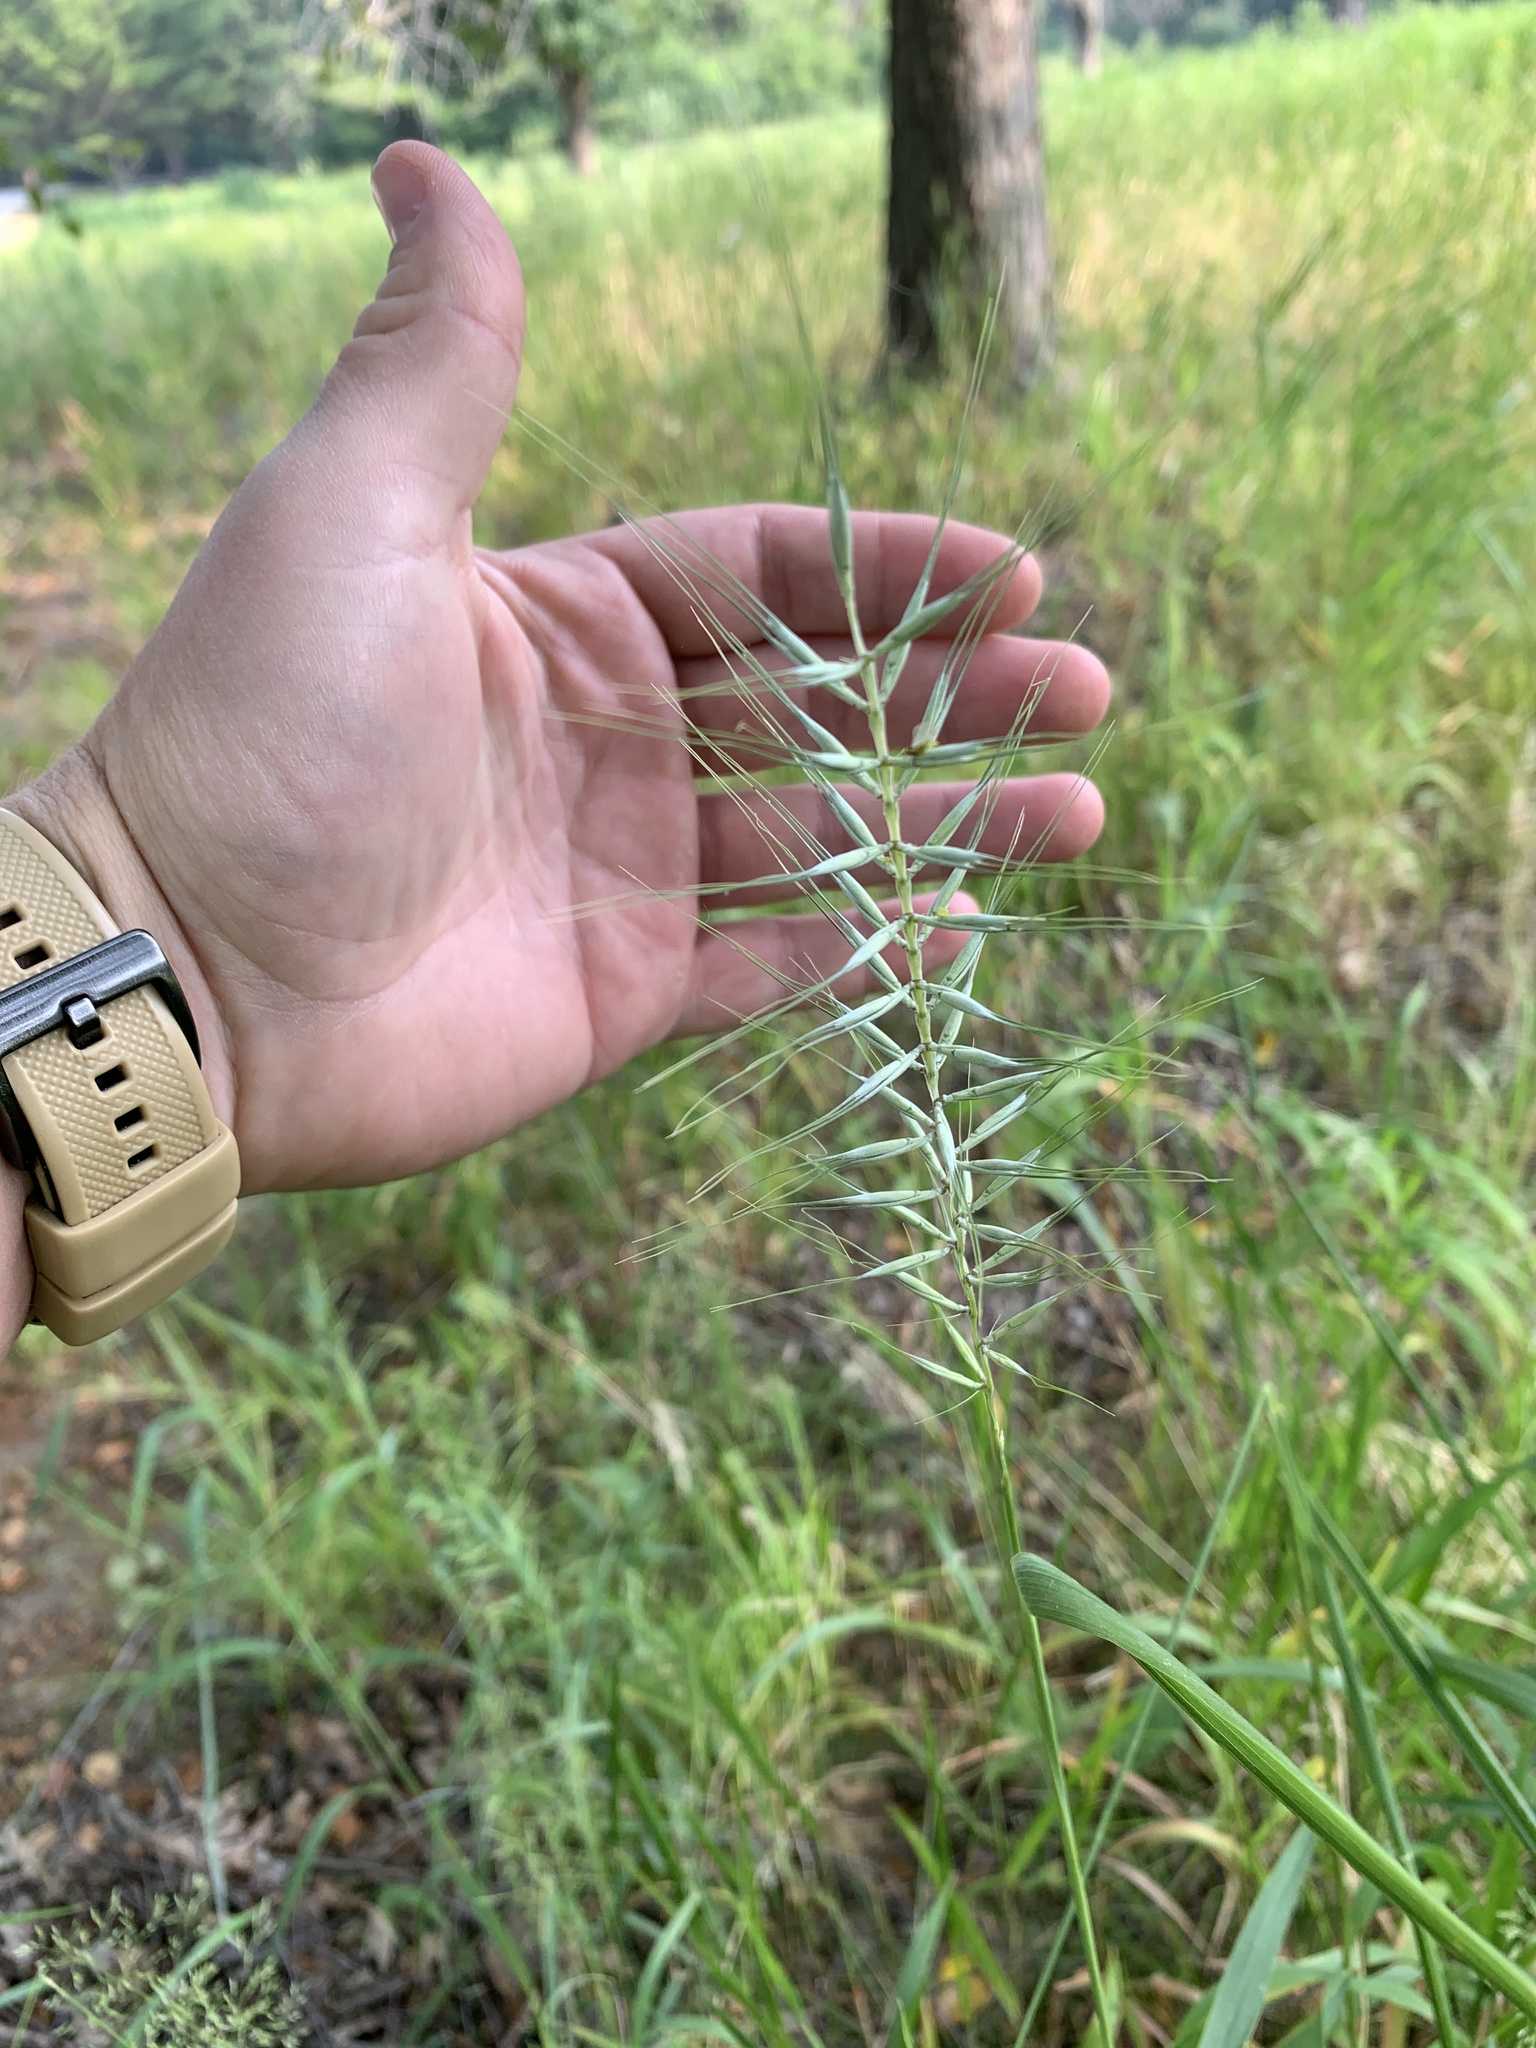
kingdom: Plantae
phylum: Tracheophyta
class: Liliopsida
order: Poales
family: Poaceae
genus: Elymus
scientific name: Elymus hystrix
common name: Bottlebrush grass
